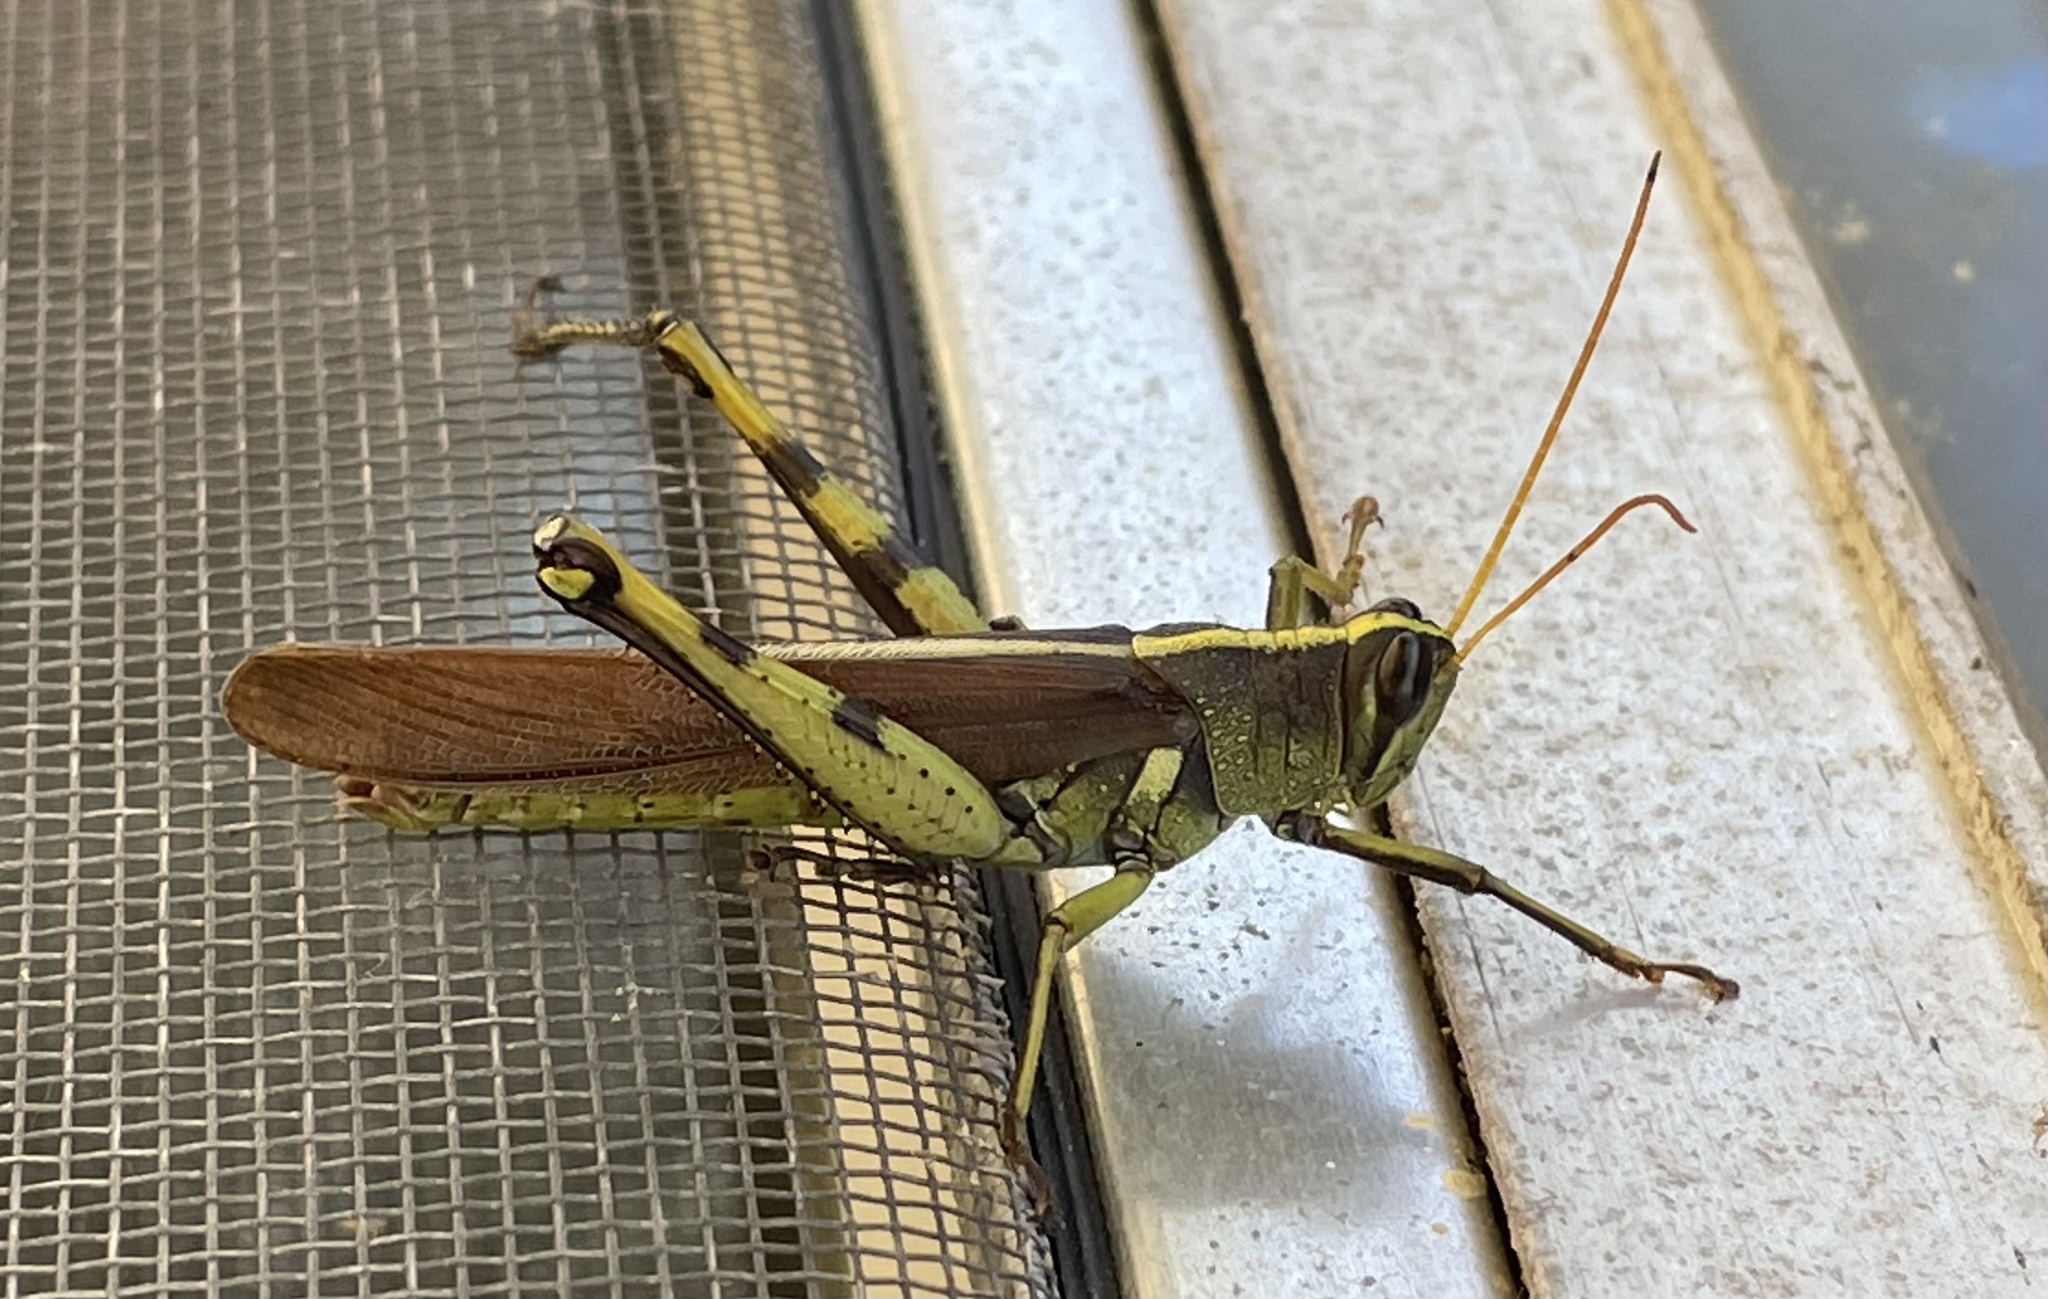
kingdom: Animalia
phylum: Arthropoda
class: Insecta
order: Orthoptera
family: Acrididae
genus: Schistocerca
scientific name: Schistocerca obscura
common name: Obscure bird grasshopper
